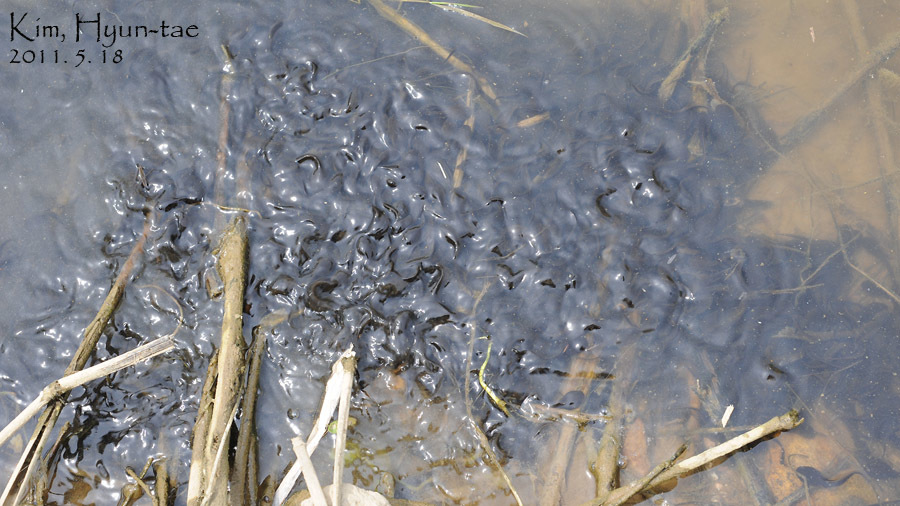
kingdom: Animalia
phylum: Chordata
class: Amphibia
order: Anura
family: Bufonidae
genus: Bufo
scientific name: Bufo gargarizans
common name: Asiatic toad
